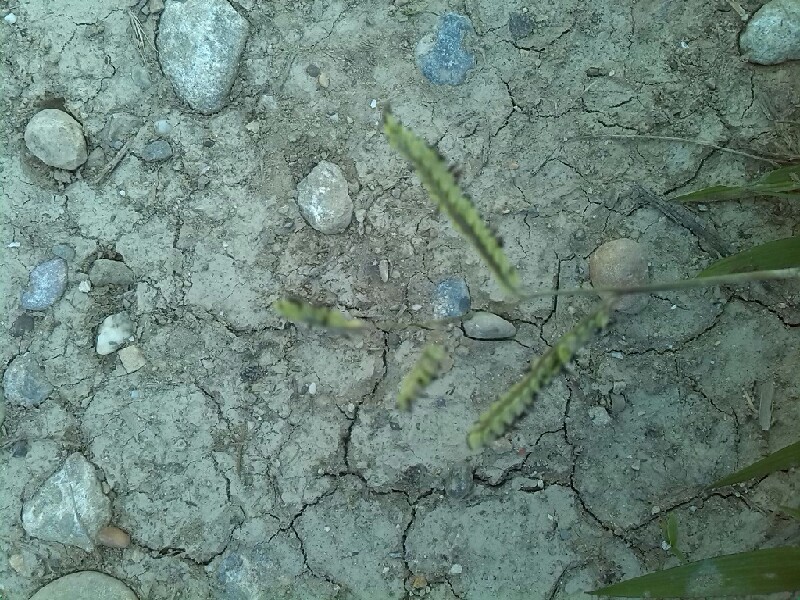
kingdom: Plantae
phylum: Tracheophyta
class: Liliopsida
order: Poales
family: Poaceae
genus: Paspalum
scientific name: Paspalum dilatatum
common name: Dallisgrass
